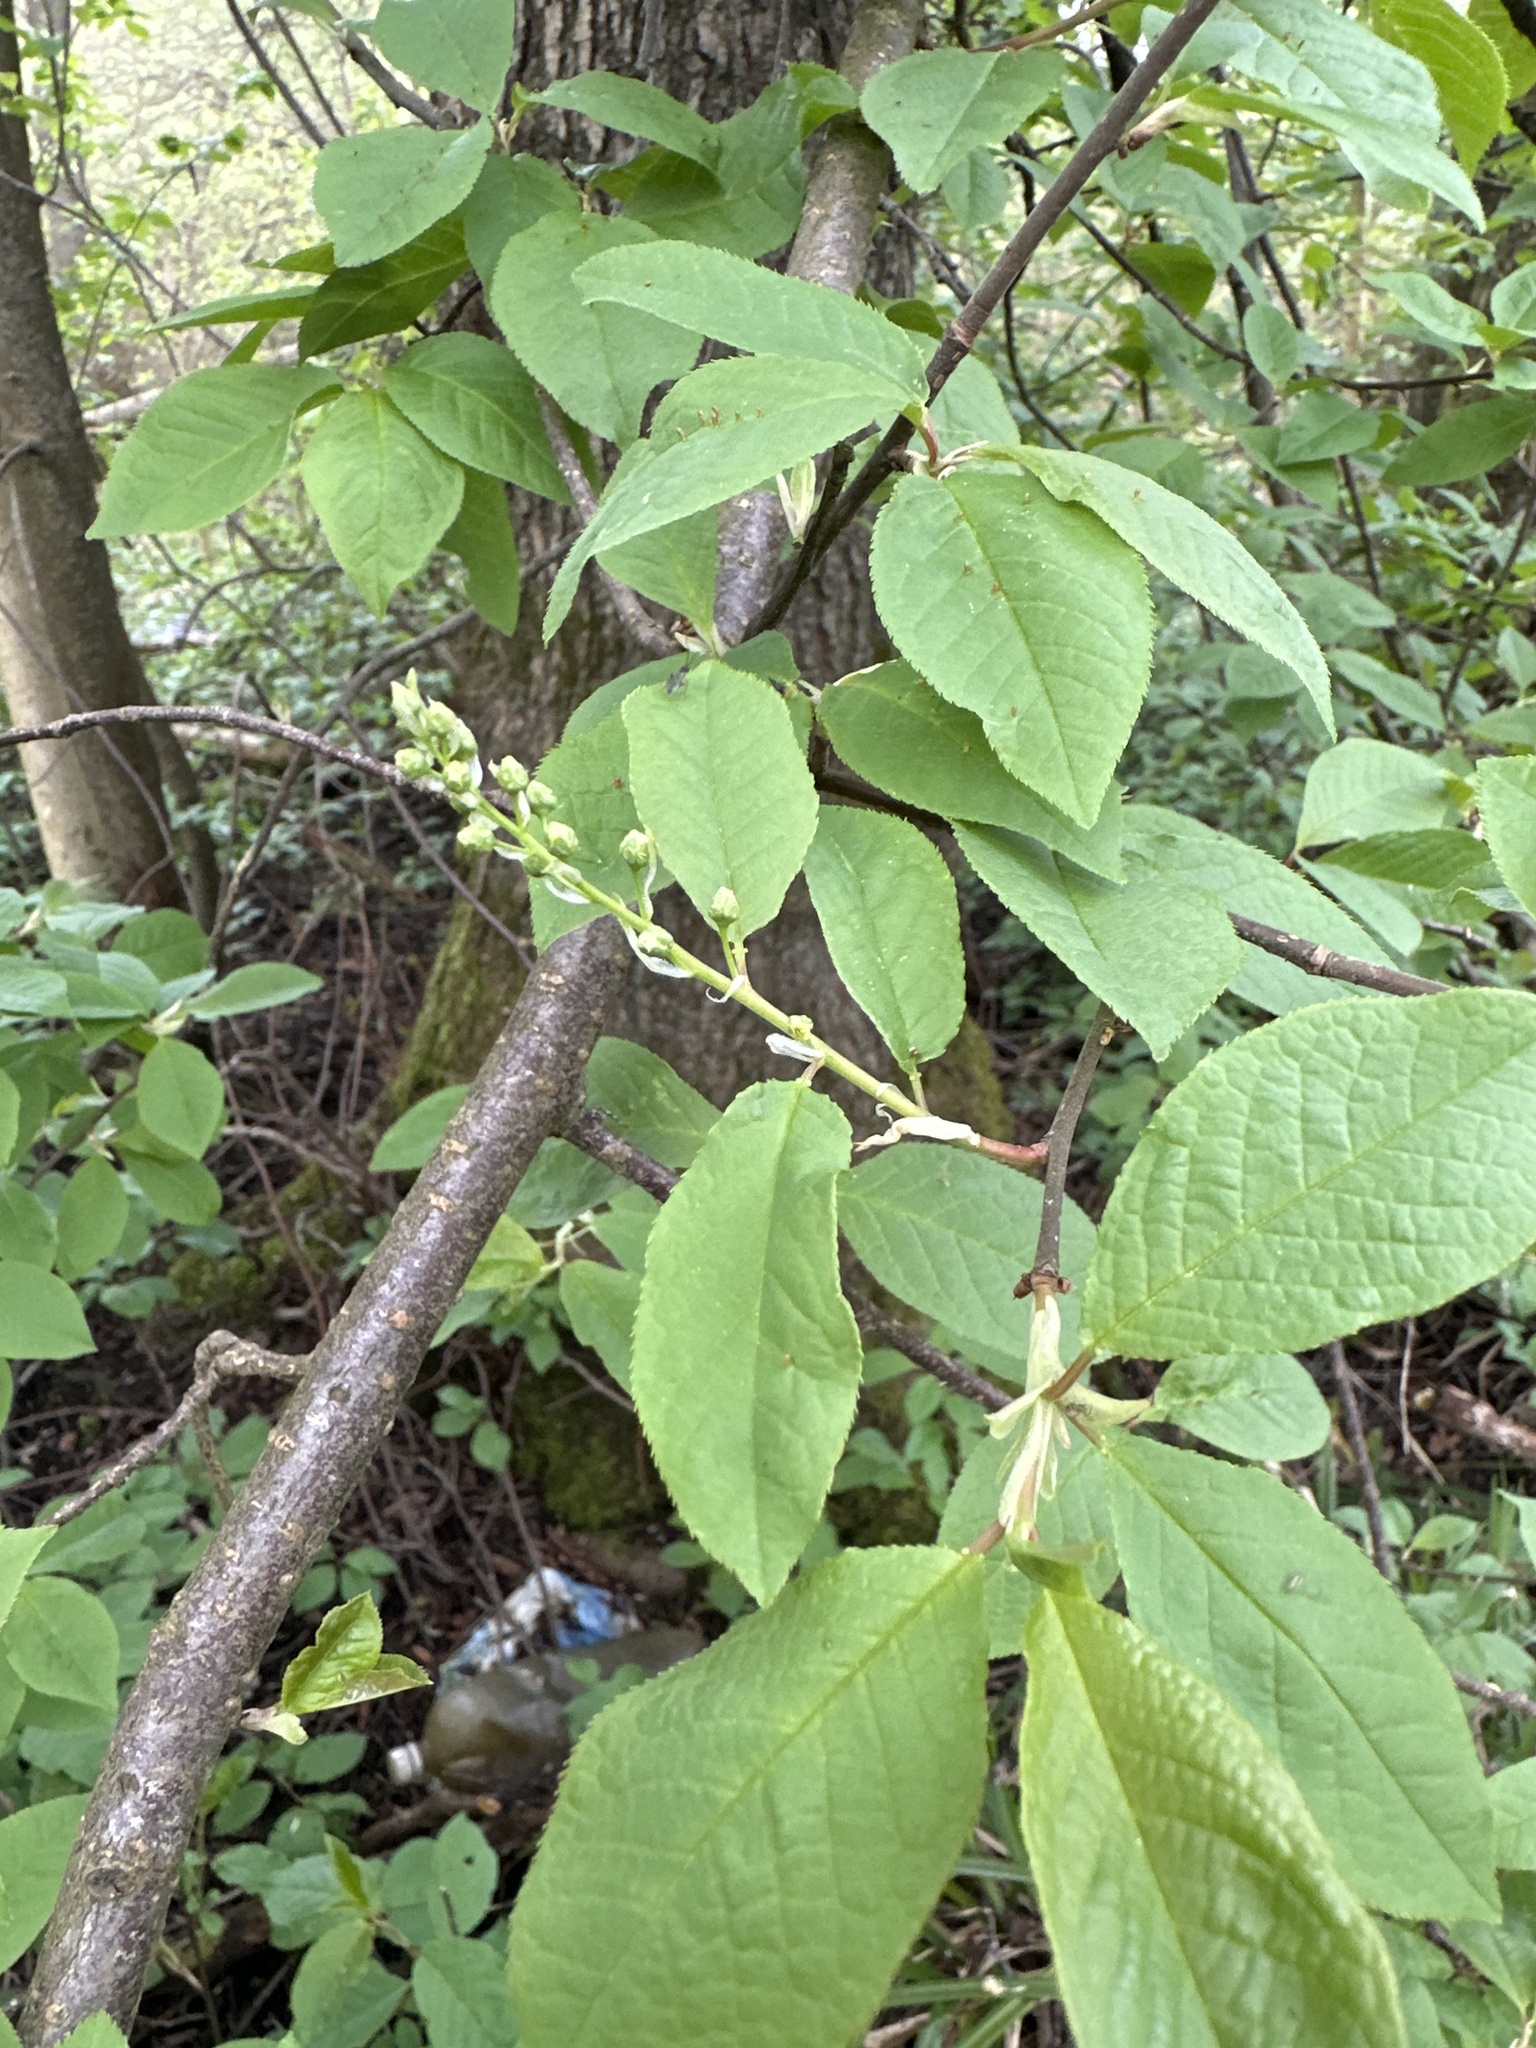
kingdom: Plantae
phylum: Tracheophyta
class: Magnoliopsida
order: Rosales
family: Rosaceae
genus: Prunus
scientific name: Prunus padus
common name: Bird cherry
